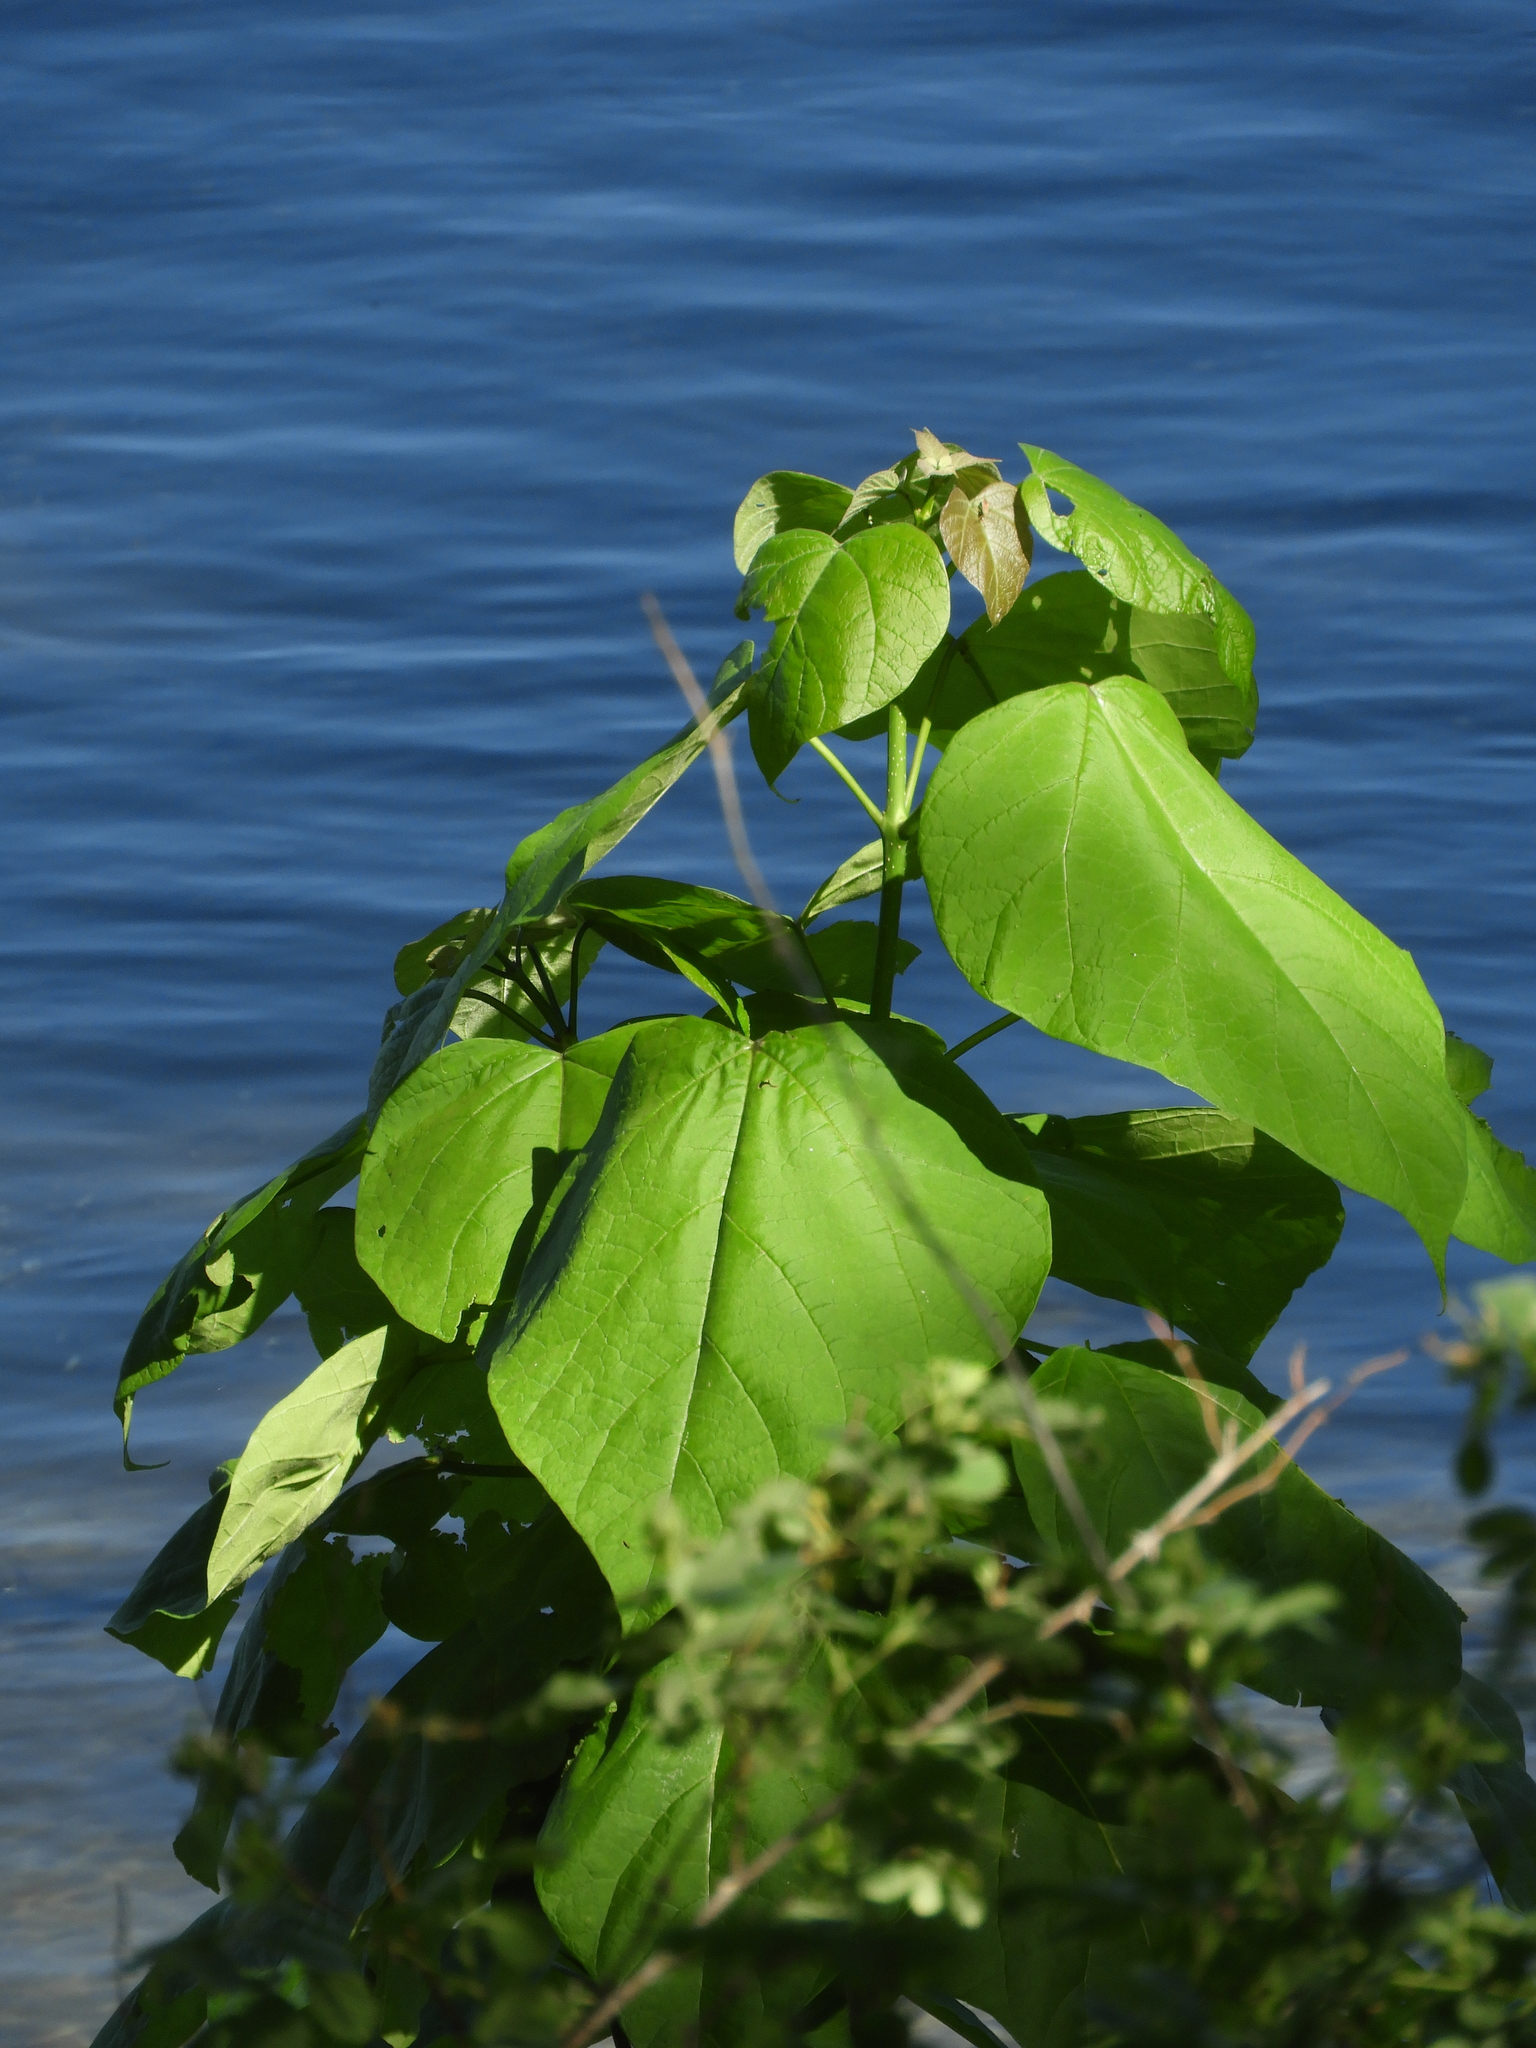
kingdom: Plantae
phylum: Tracheophyta
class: Magnoliopsida
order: Lamiales
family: Bignoniaceae
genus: Catalpa
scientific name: Catalpa speciosa
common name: Northern catalpa
